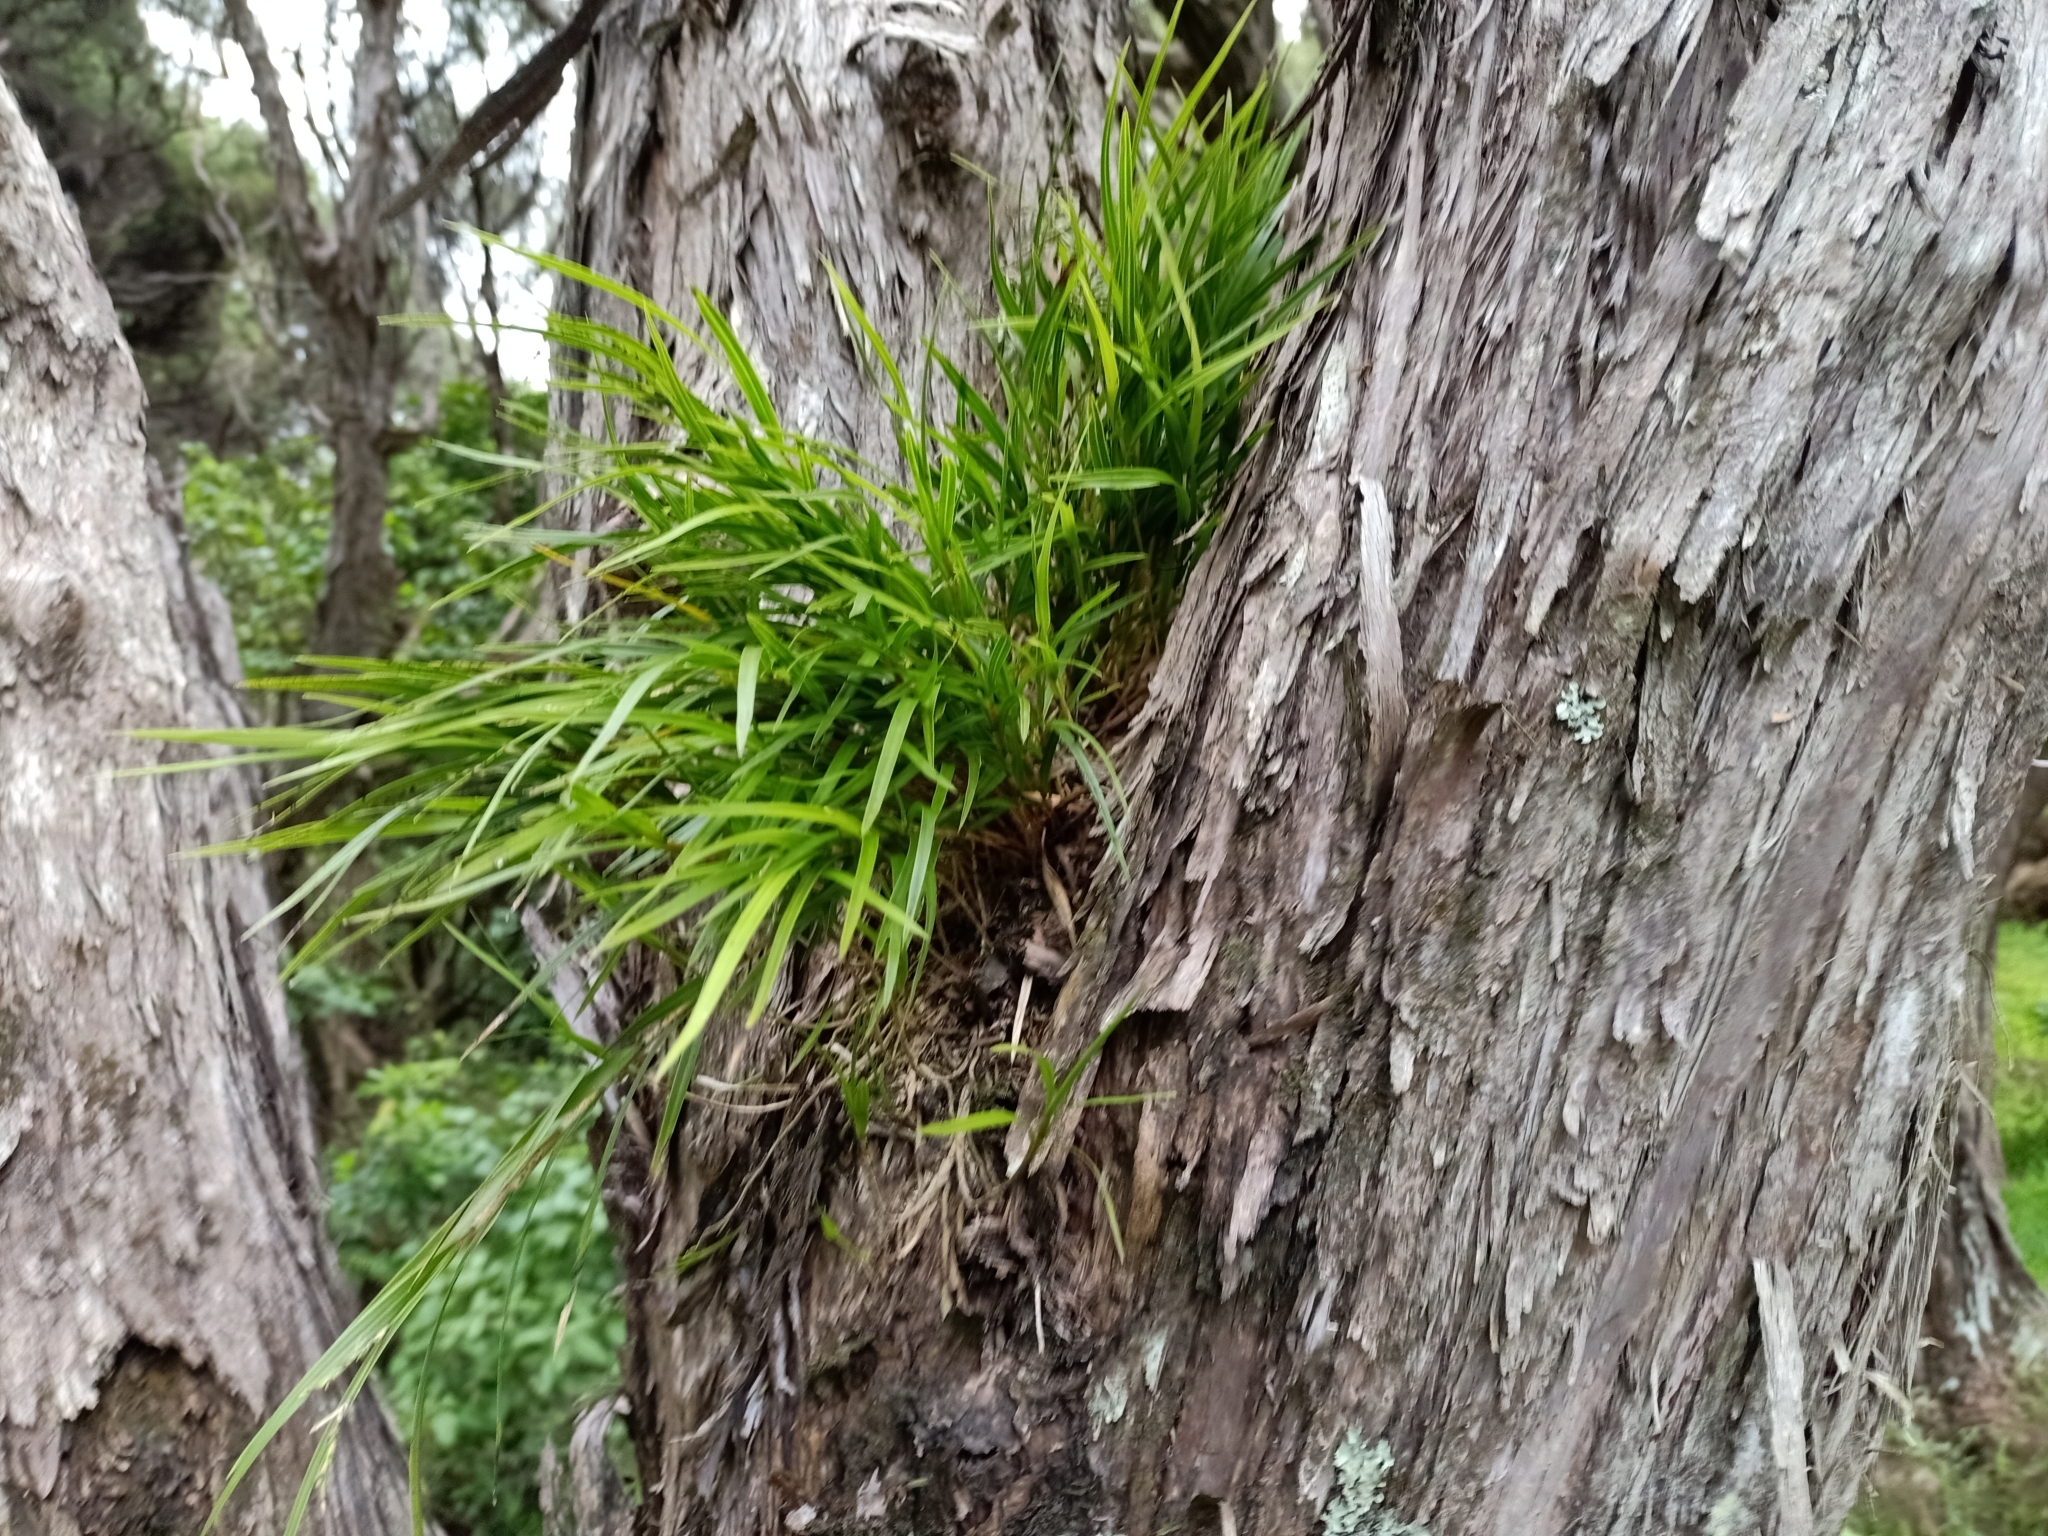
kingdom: Plantae
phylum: Tracheophyta
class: Liliopsida
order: Asparagales
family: Orchidaceae
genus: Earina
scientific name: Earina mucronata
